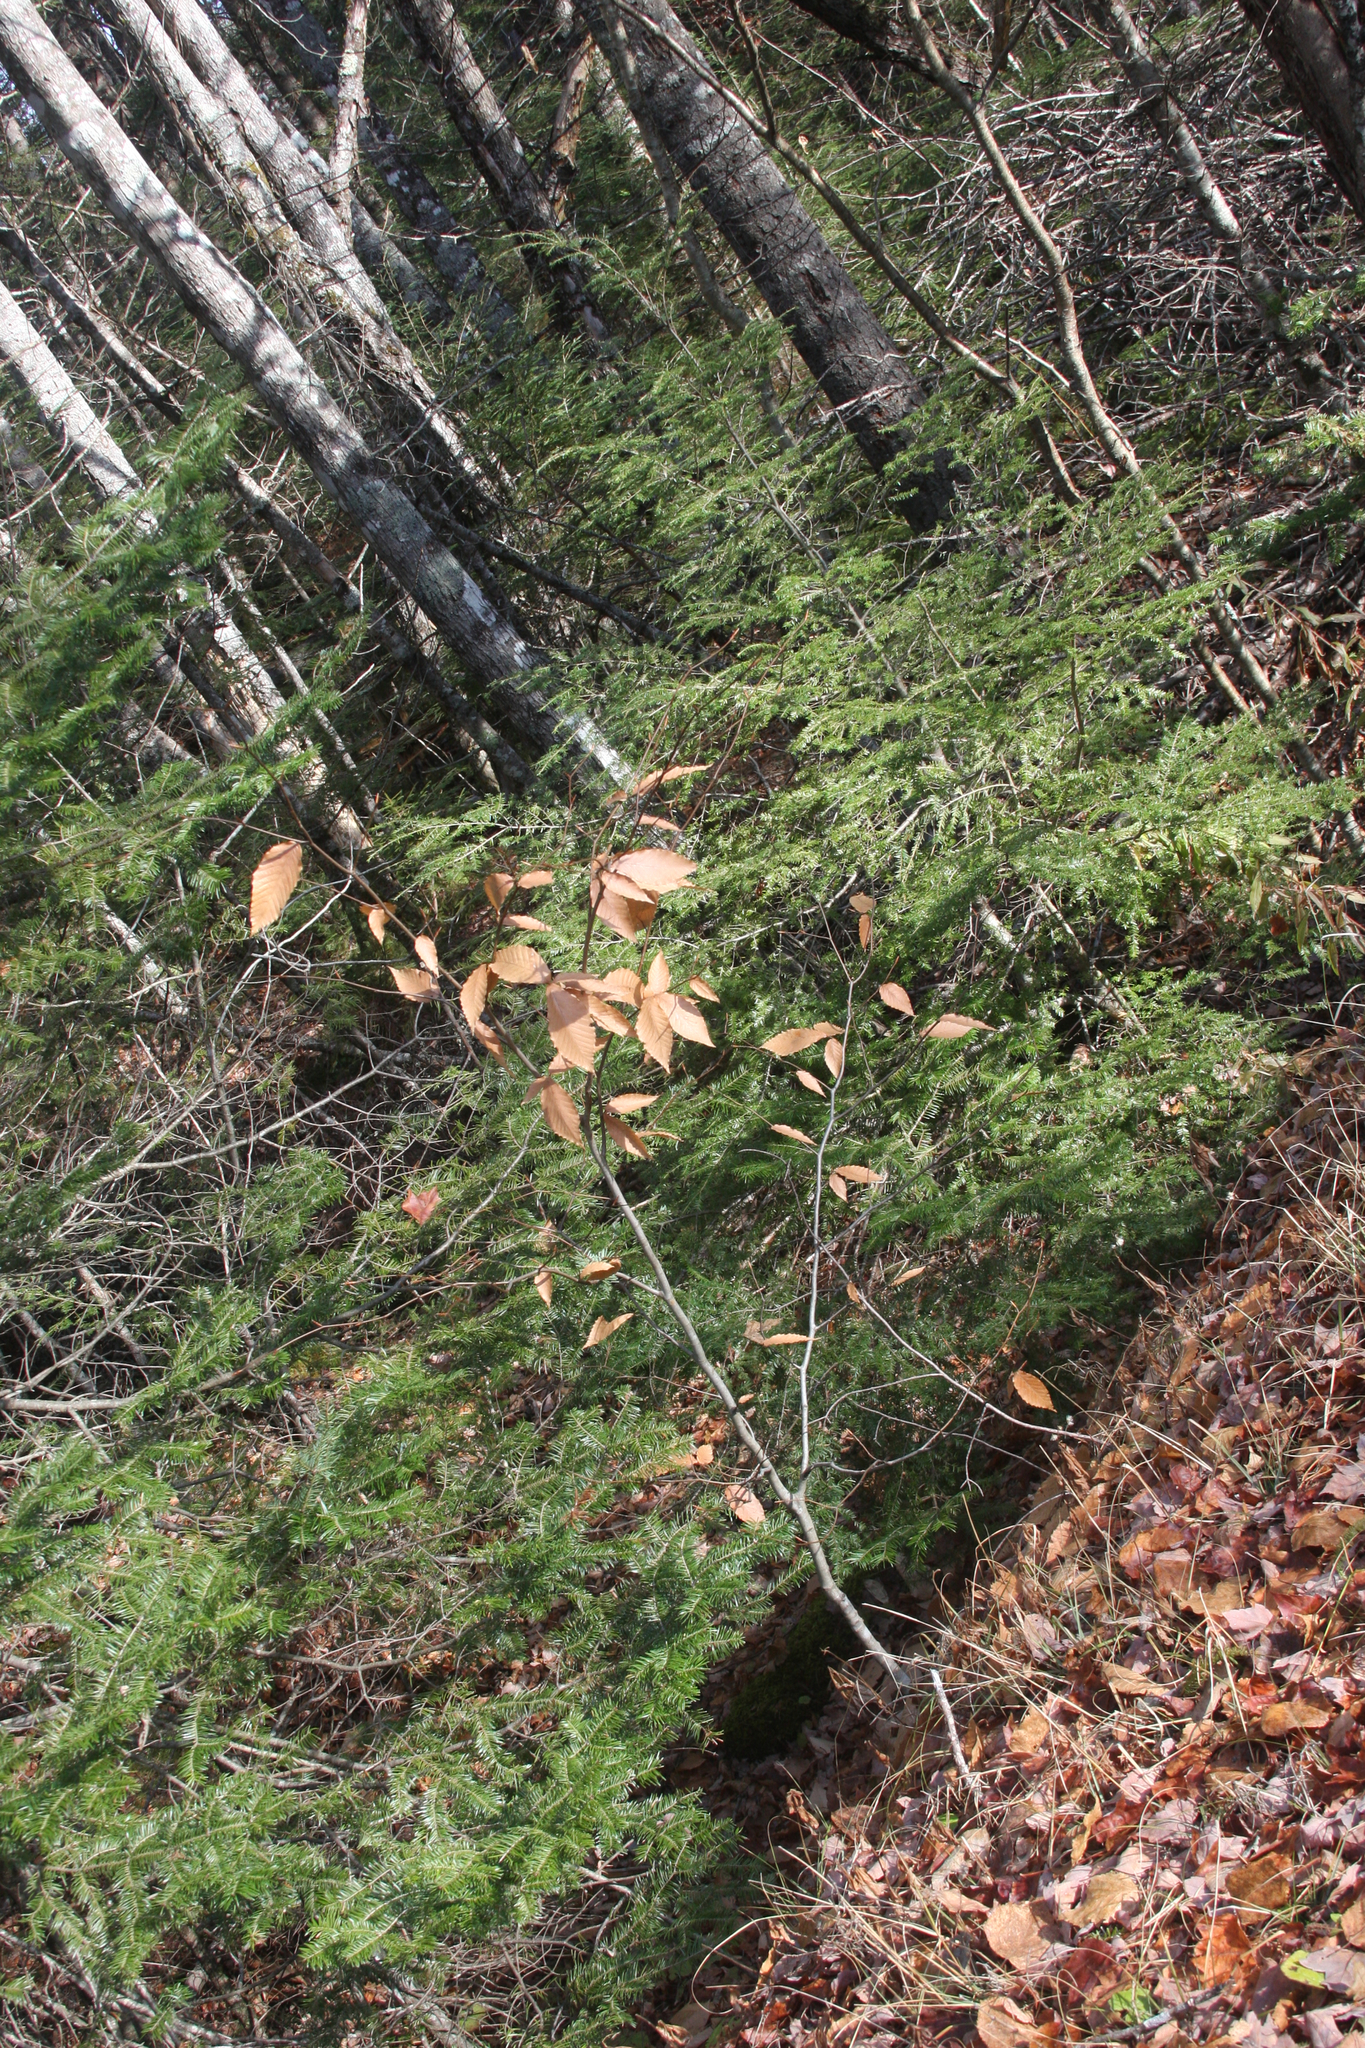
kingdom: Plantae
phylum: Tracheophyta
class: Magnoliopsida
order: Fagales
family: Fagaceae
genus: Fagus
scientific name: Fagus grandifolia
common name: American beech
